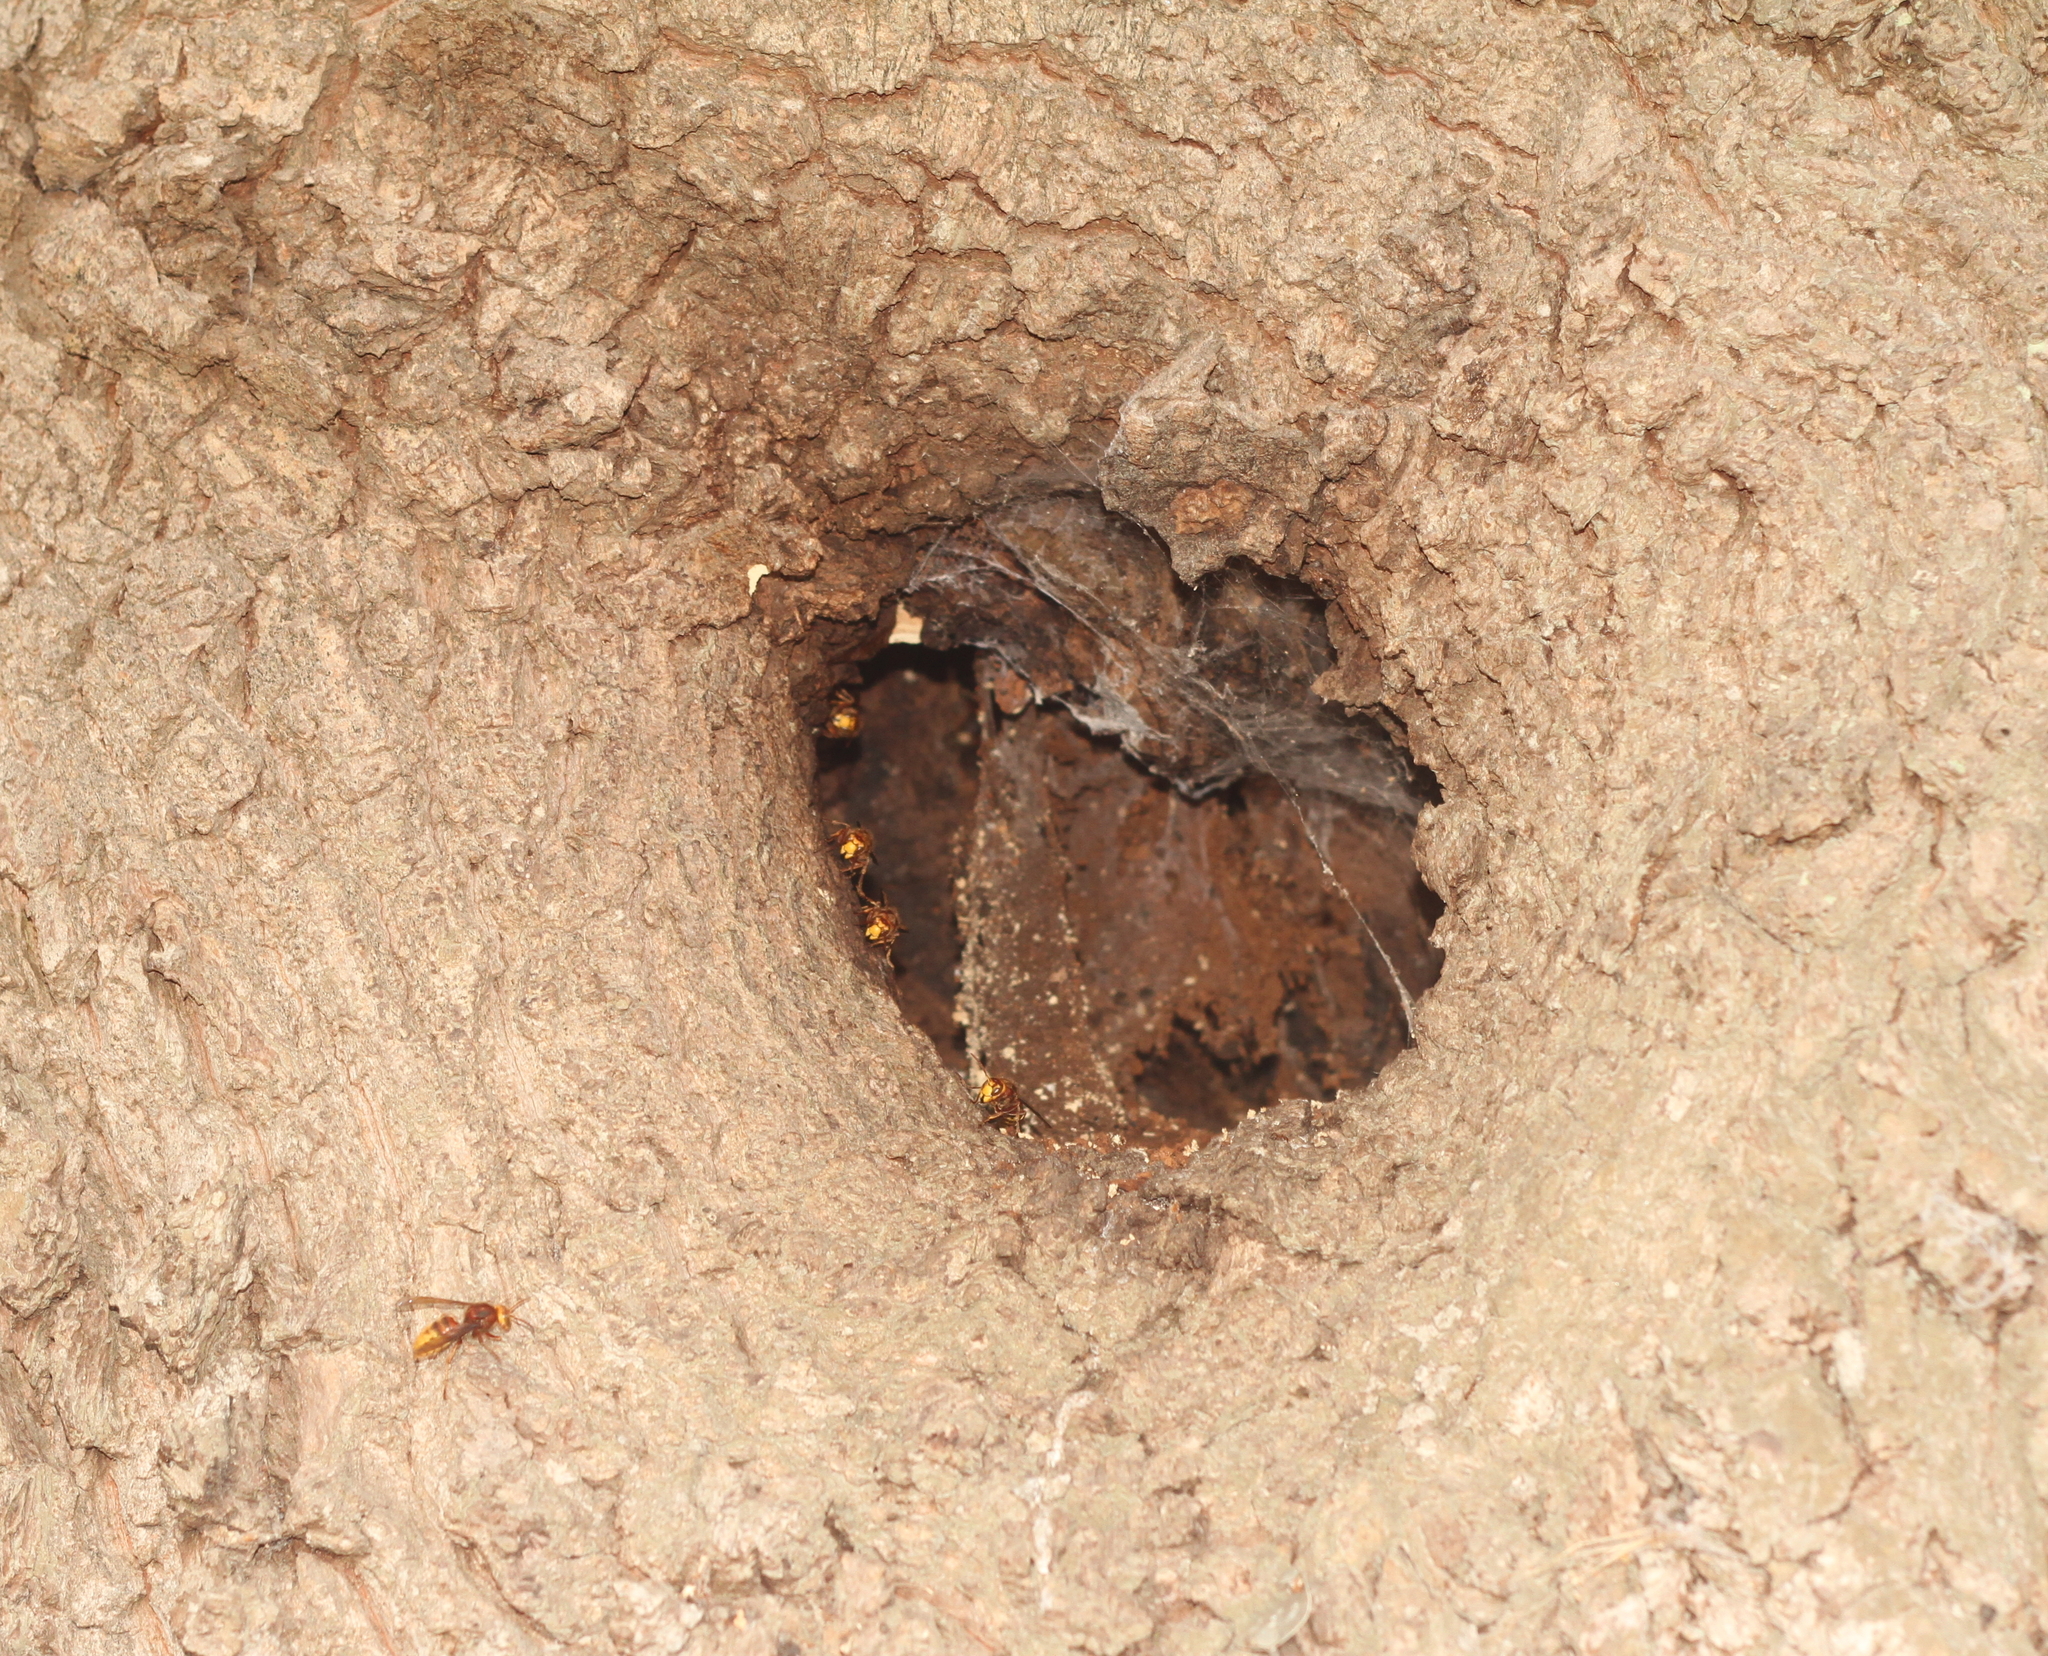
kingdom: Animalia
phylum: Arthropoda
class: Insecta
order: Hymenoptera
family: Vespidae
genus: Vespa
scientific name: Vespa crabro
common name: Hornet
